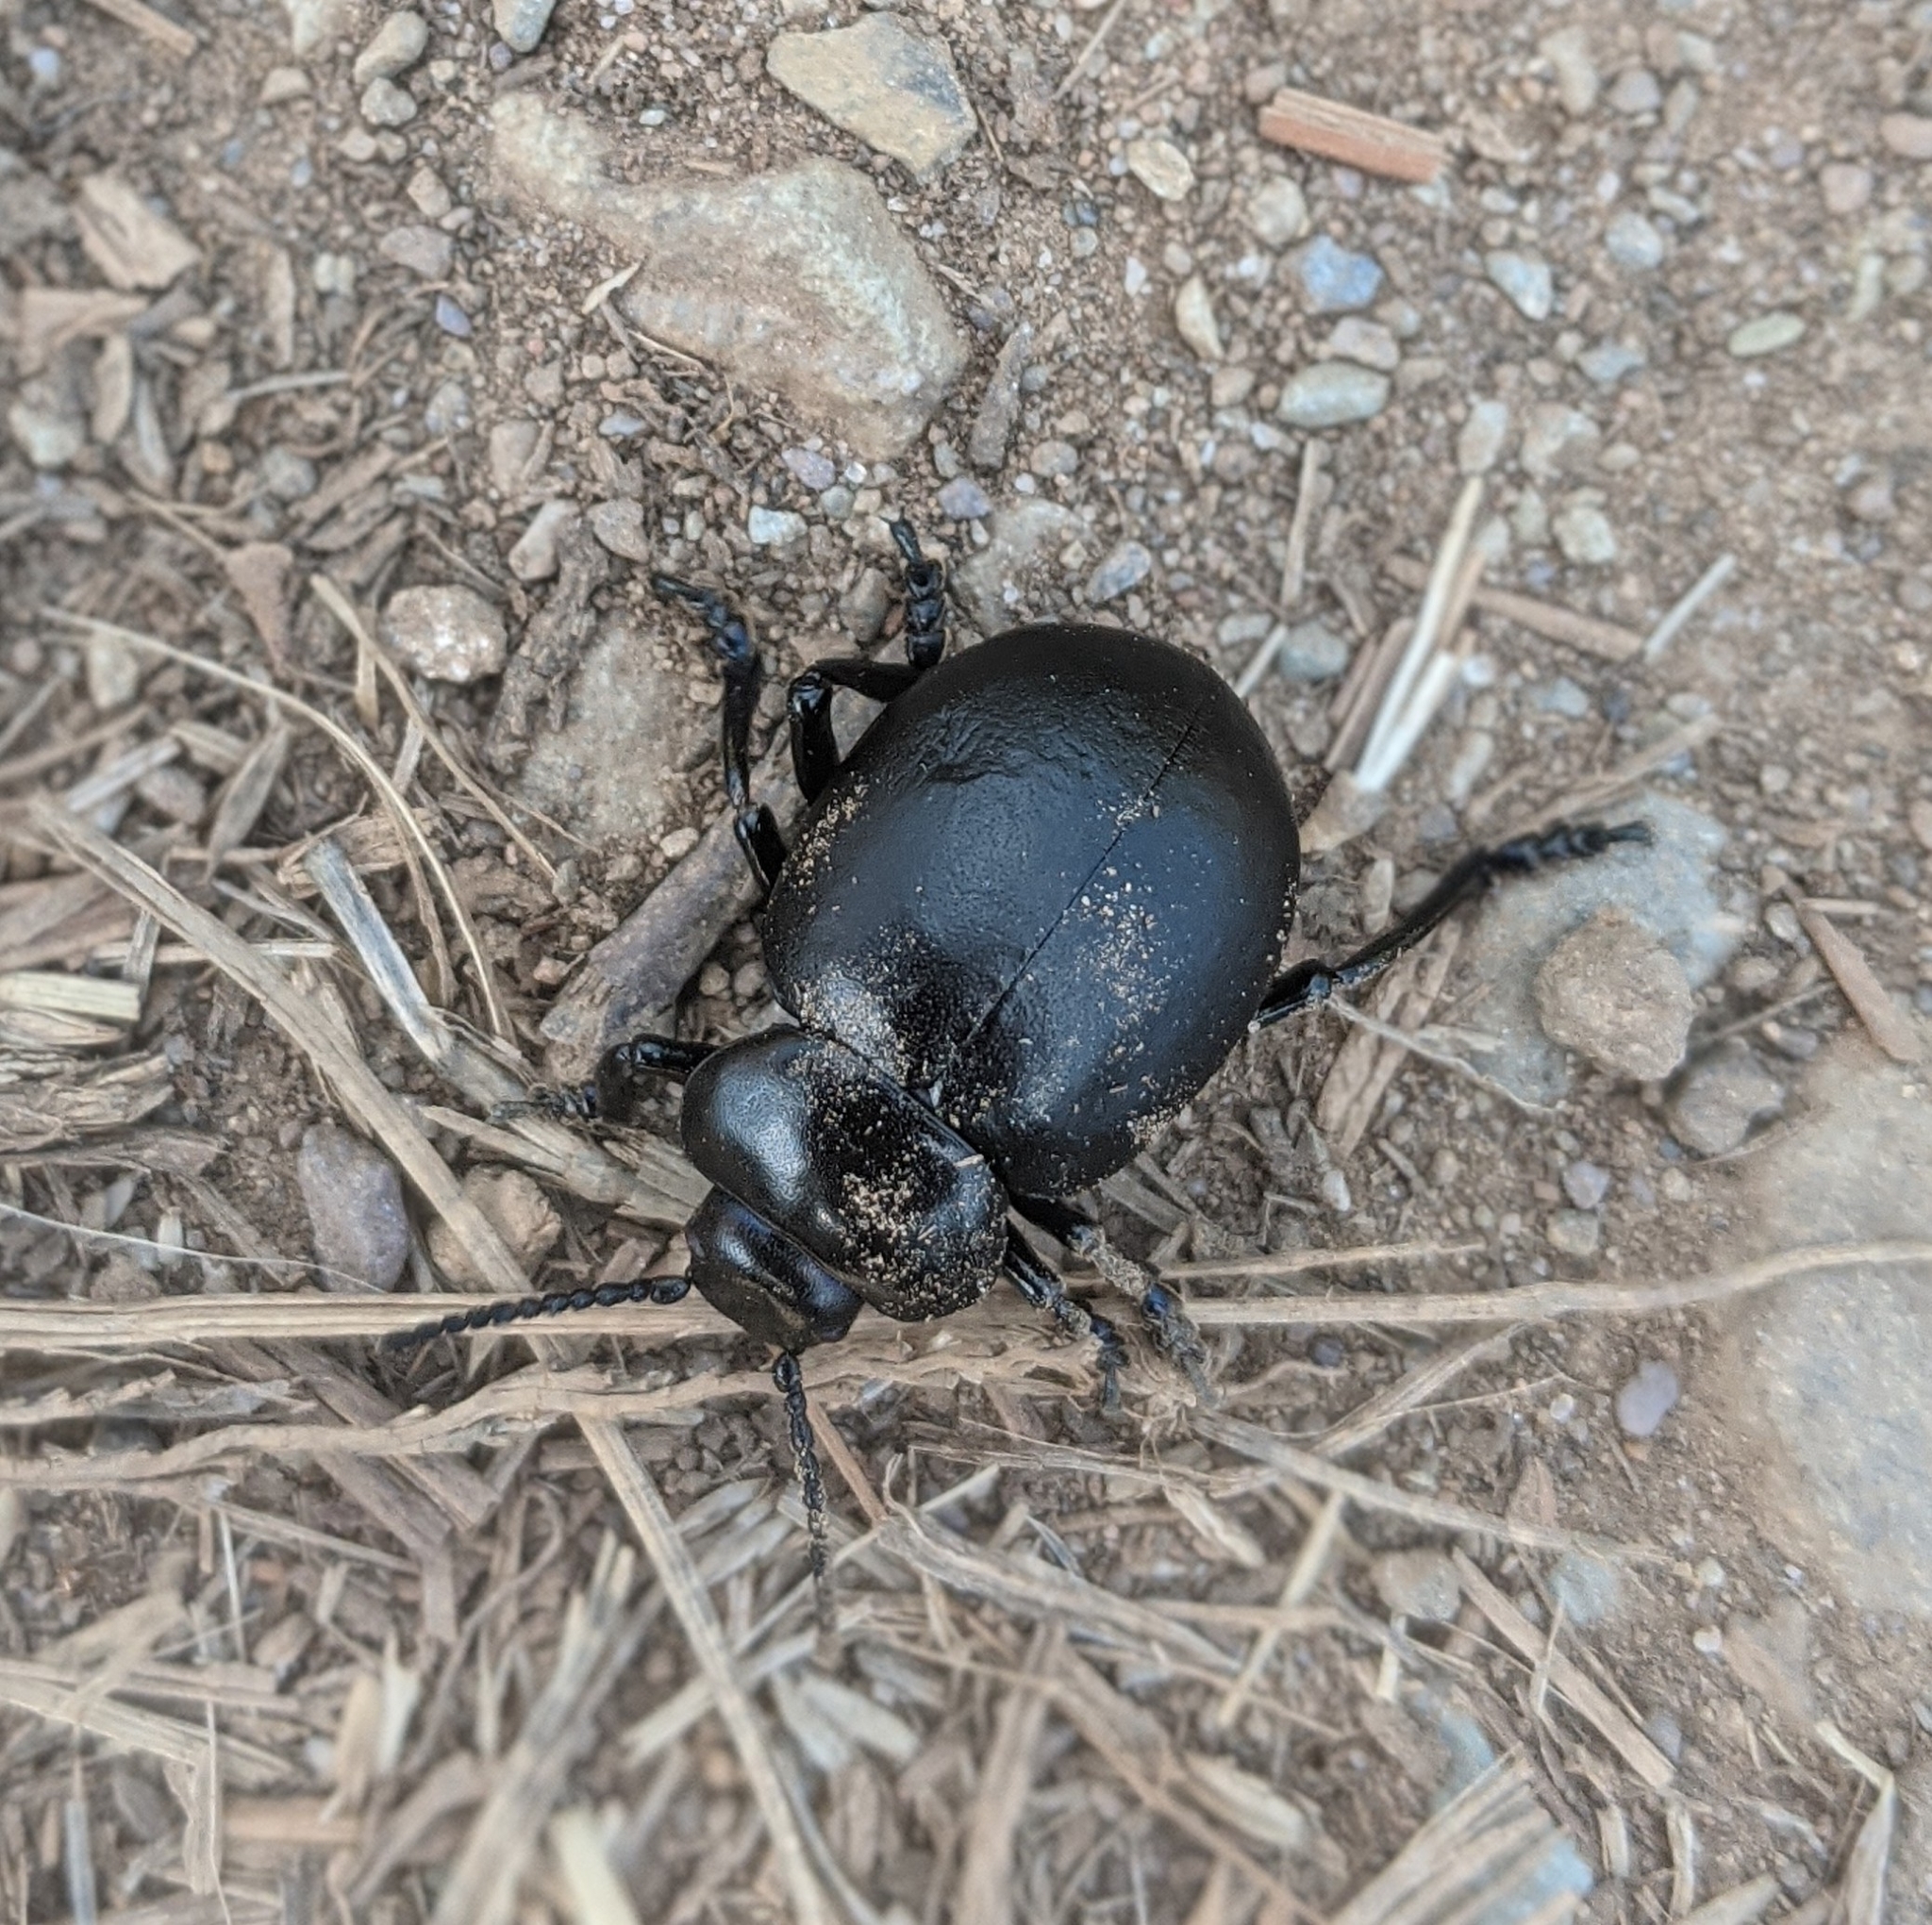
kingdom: Animalia
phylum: Arthropoda
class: Insecta
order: Coleoptera
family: Chrysomelidae
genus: Timarcha
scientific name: Timarcha tenebricosa
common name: Bloody-nosed beetle
